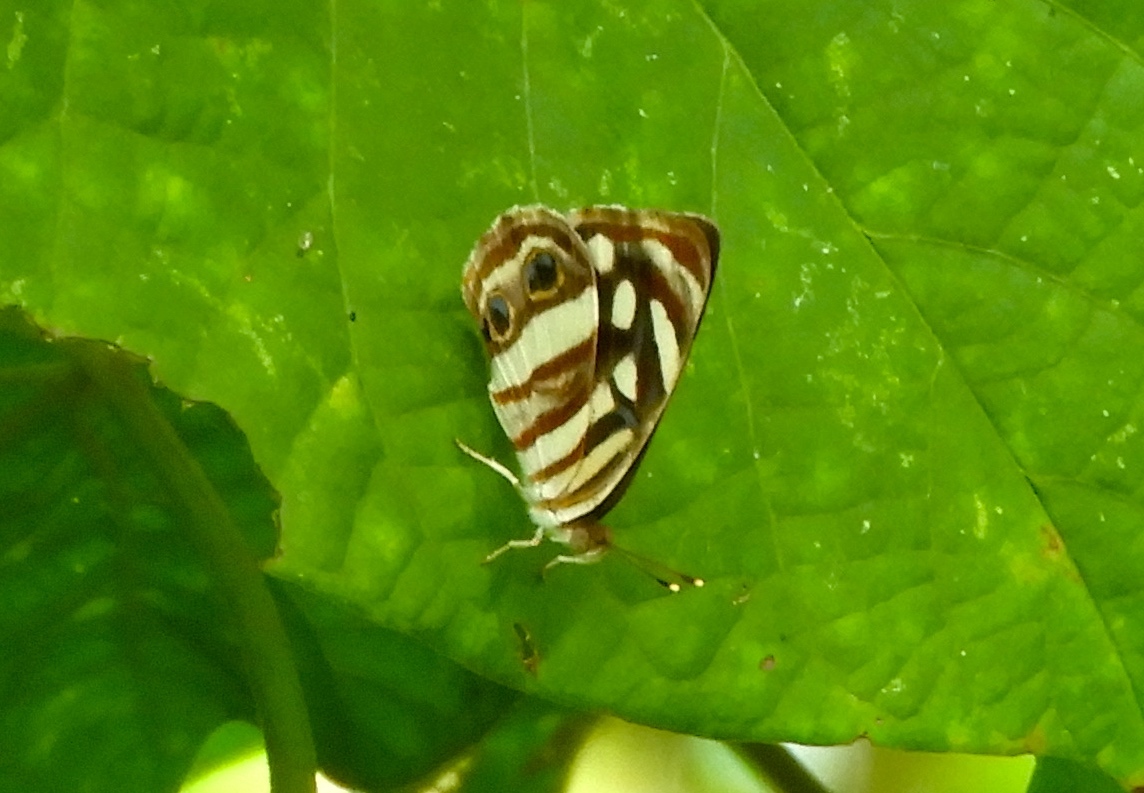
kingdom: Animalia
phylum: Arthropoda
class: Insecta
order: Lepidoptera
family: Nymphalidae
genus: Dynamine
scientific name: Dynamine mylitta
